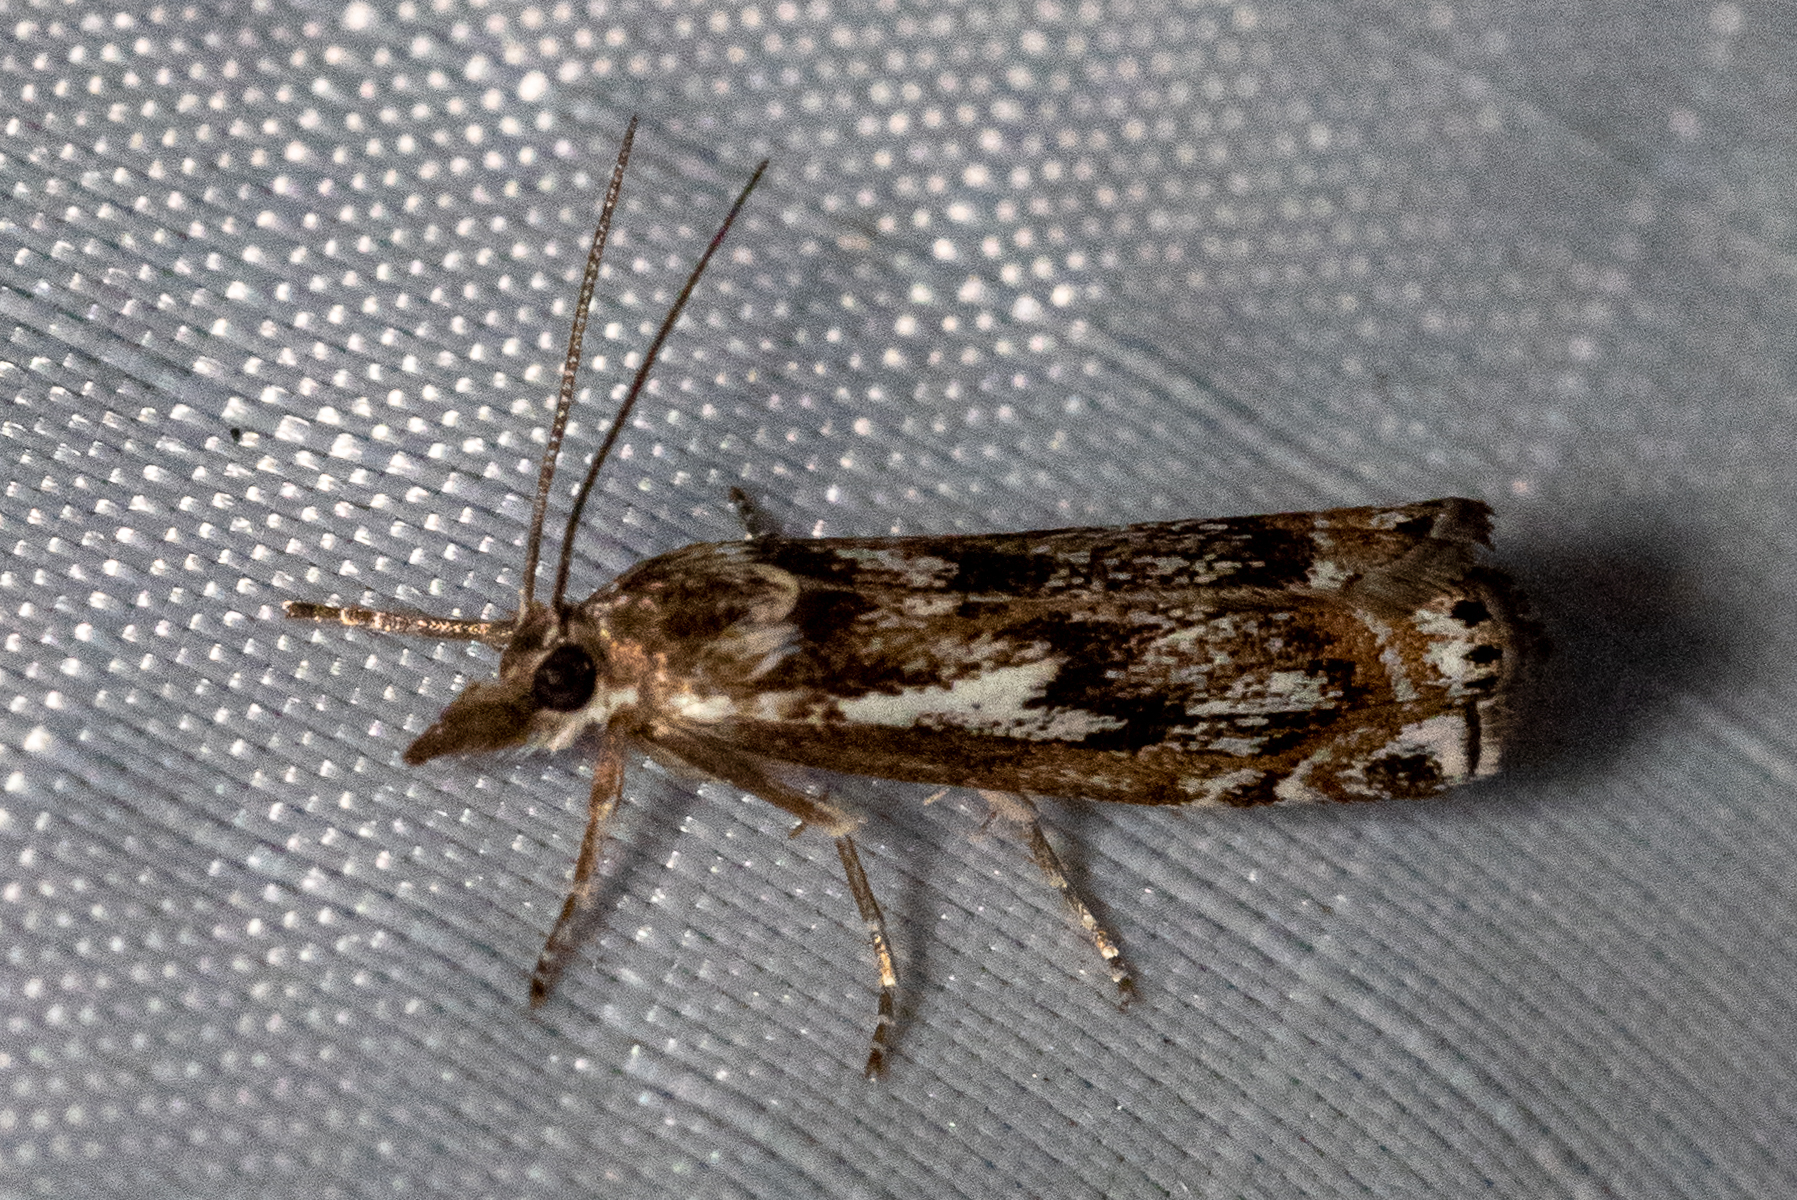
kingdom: Animalia
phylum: Arthropoda
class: Insecta
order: Lepidoptera
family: Crambidae
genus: Crambus
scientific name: Crambus alienellus
